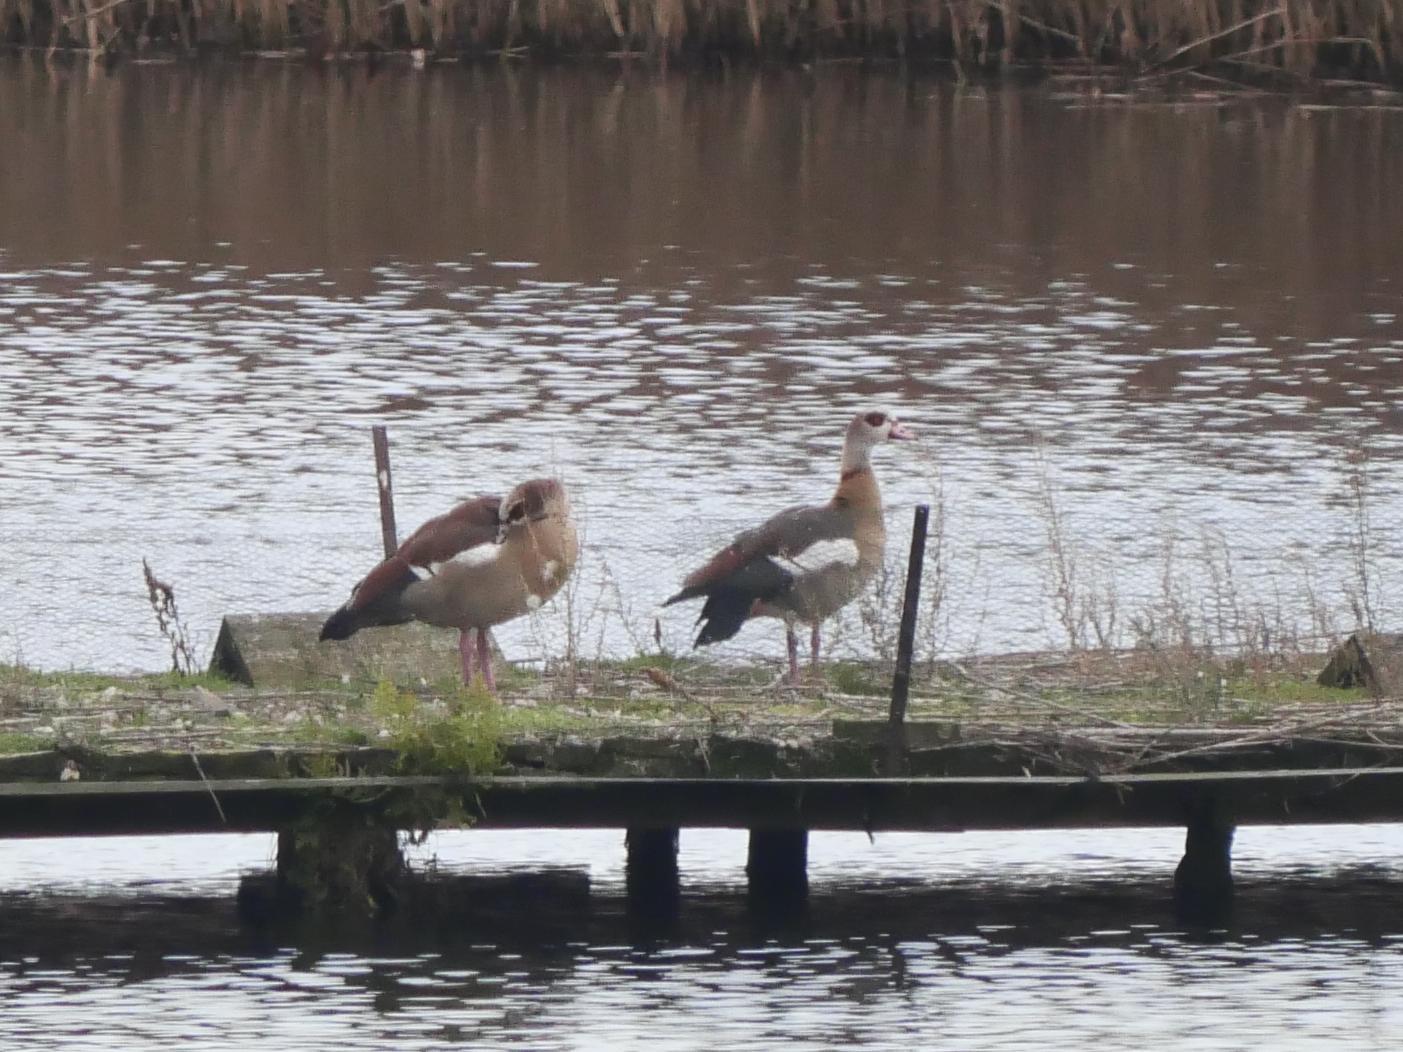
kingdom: Animalia
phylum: Chordata
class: Aves
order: Anseriformes
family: Anatidae
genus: Alopochen
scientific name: Alopochen aegyptiaca
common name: Egyptian goose
